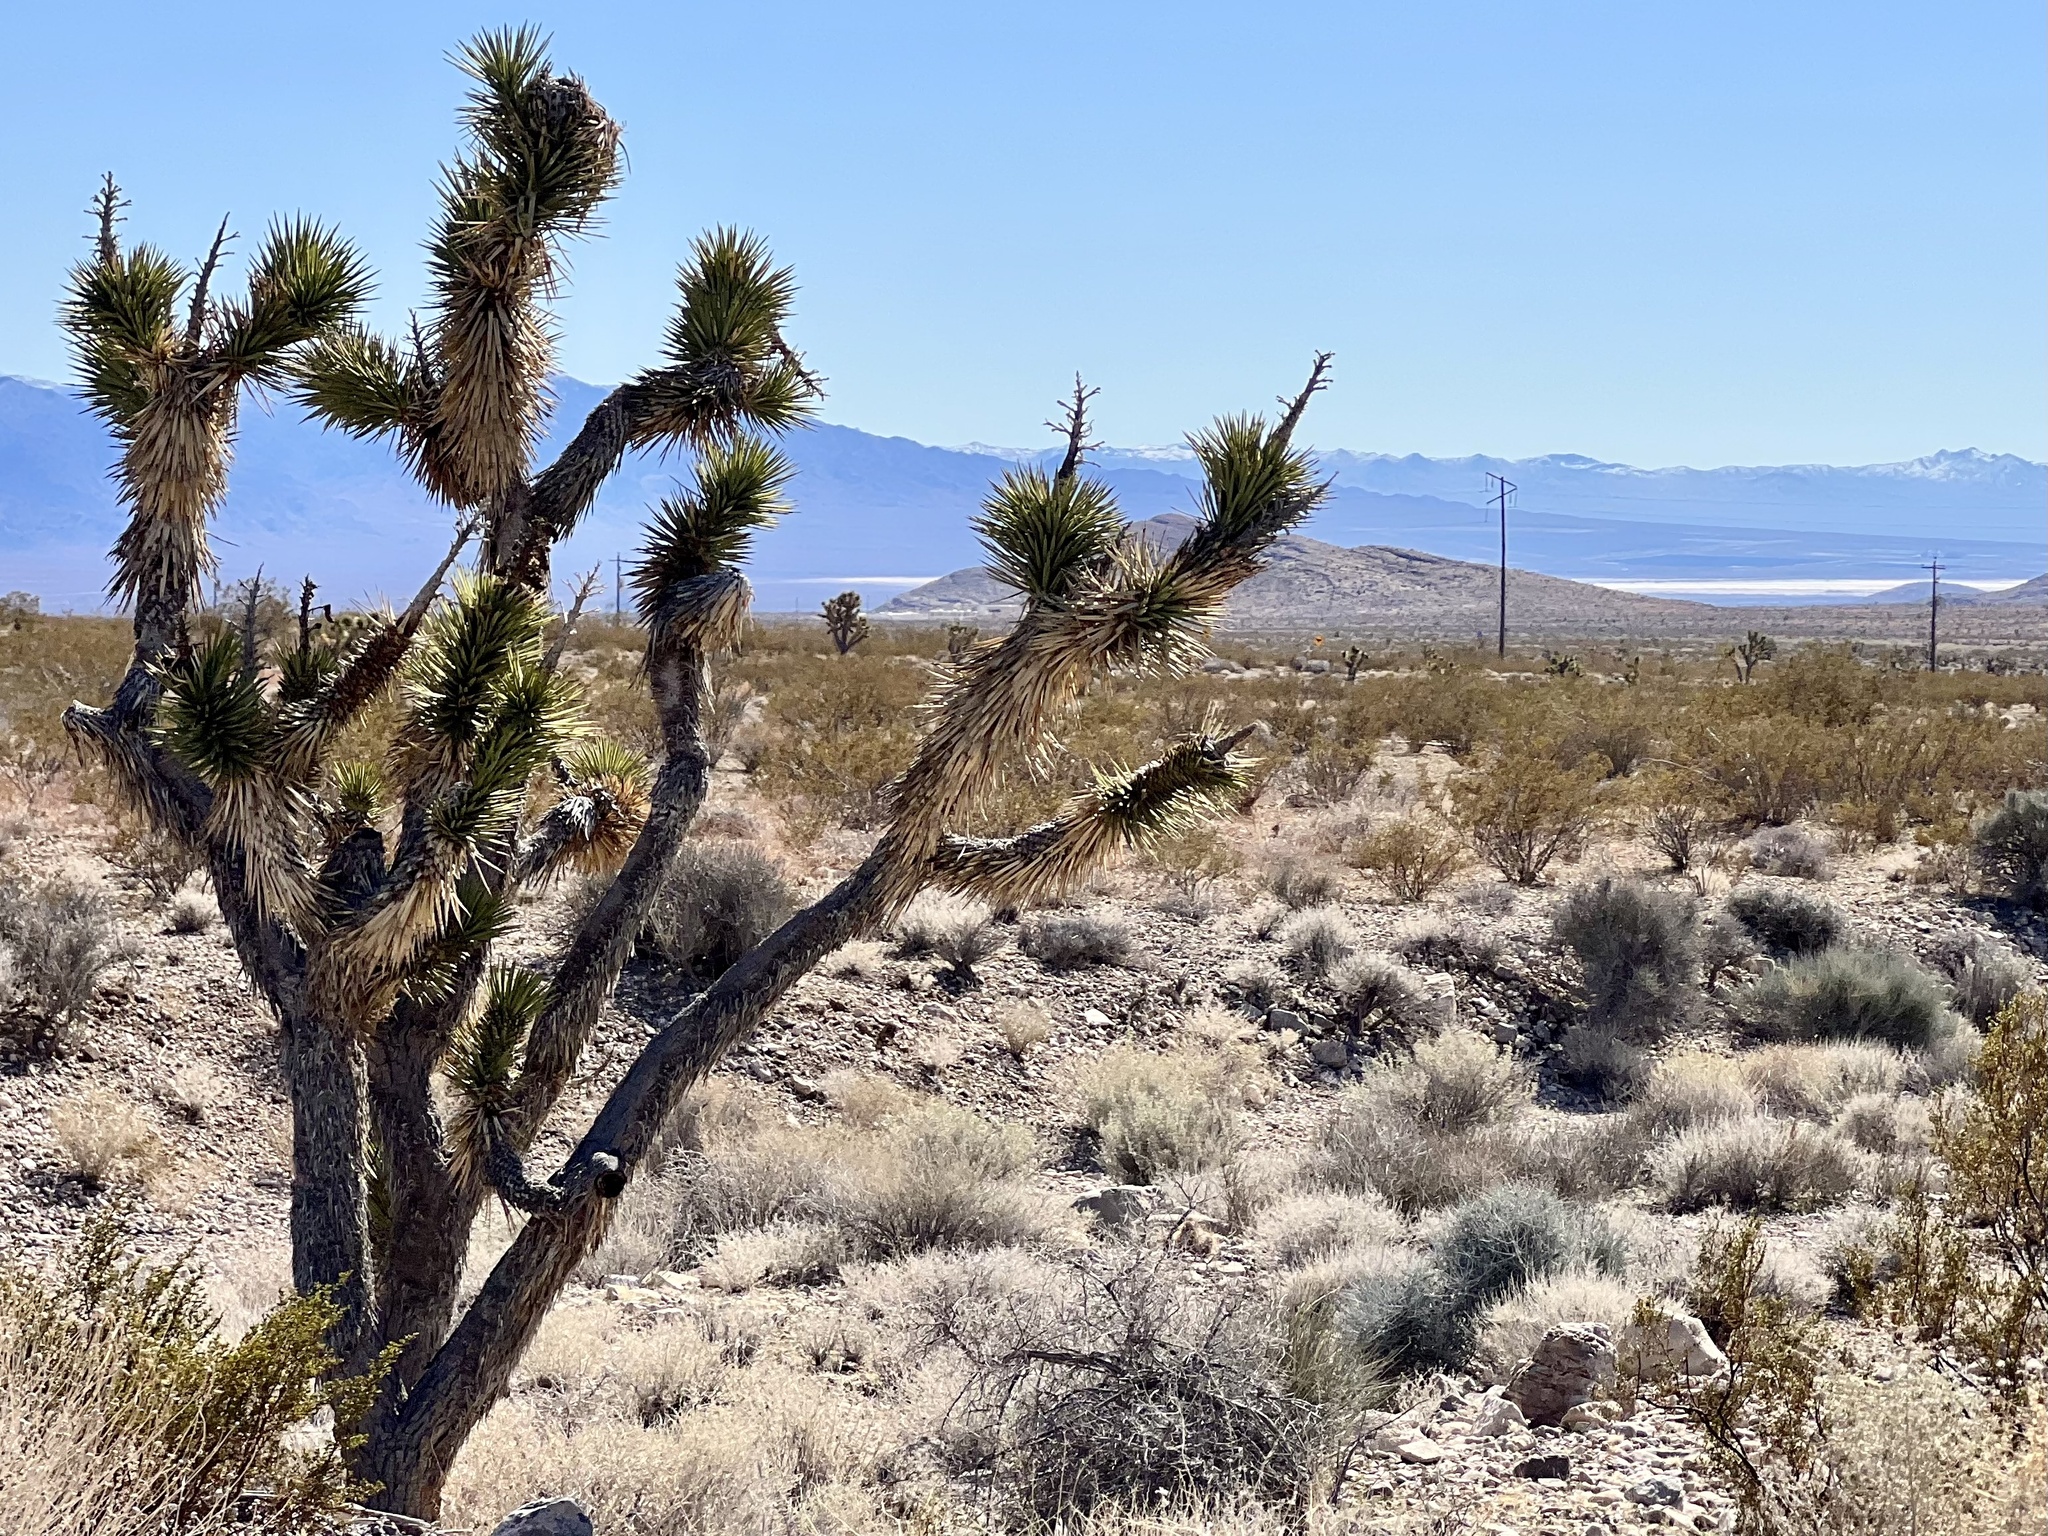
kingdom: Plantae
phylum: Tracheophyta
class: Liliopsida
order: Asparagales
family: Asparagaceae
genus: Yucca
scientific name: Yucca brevifolia
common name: Joshua tree
